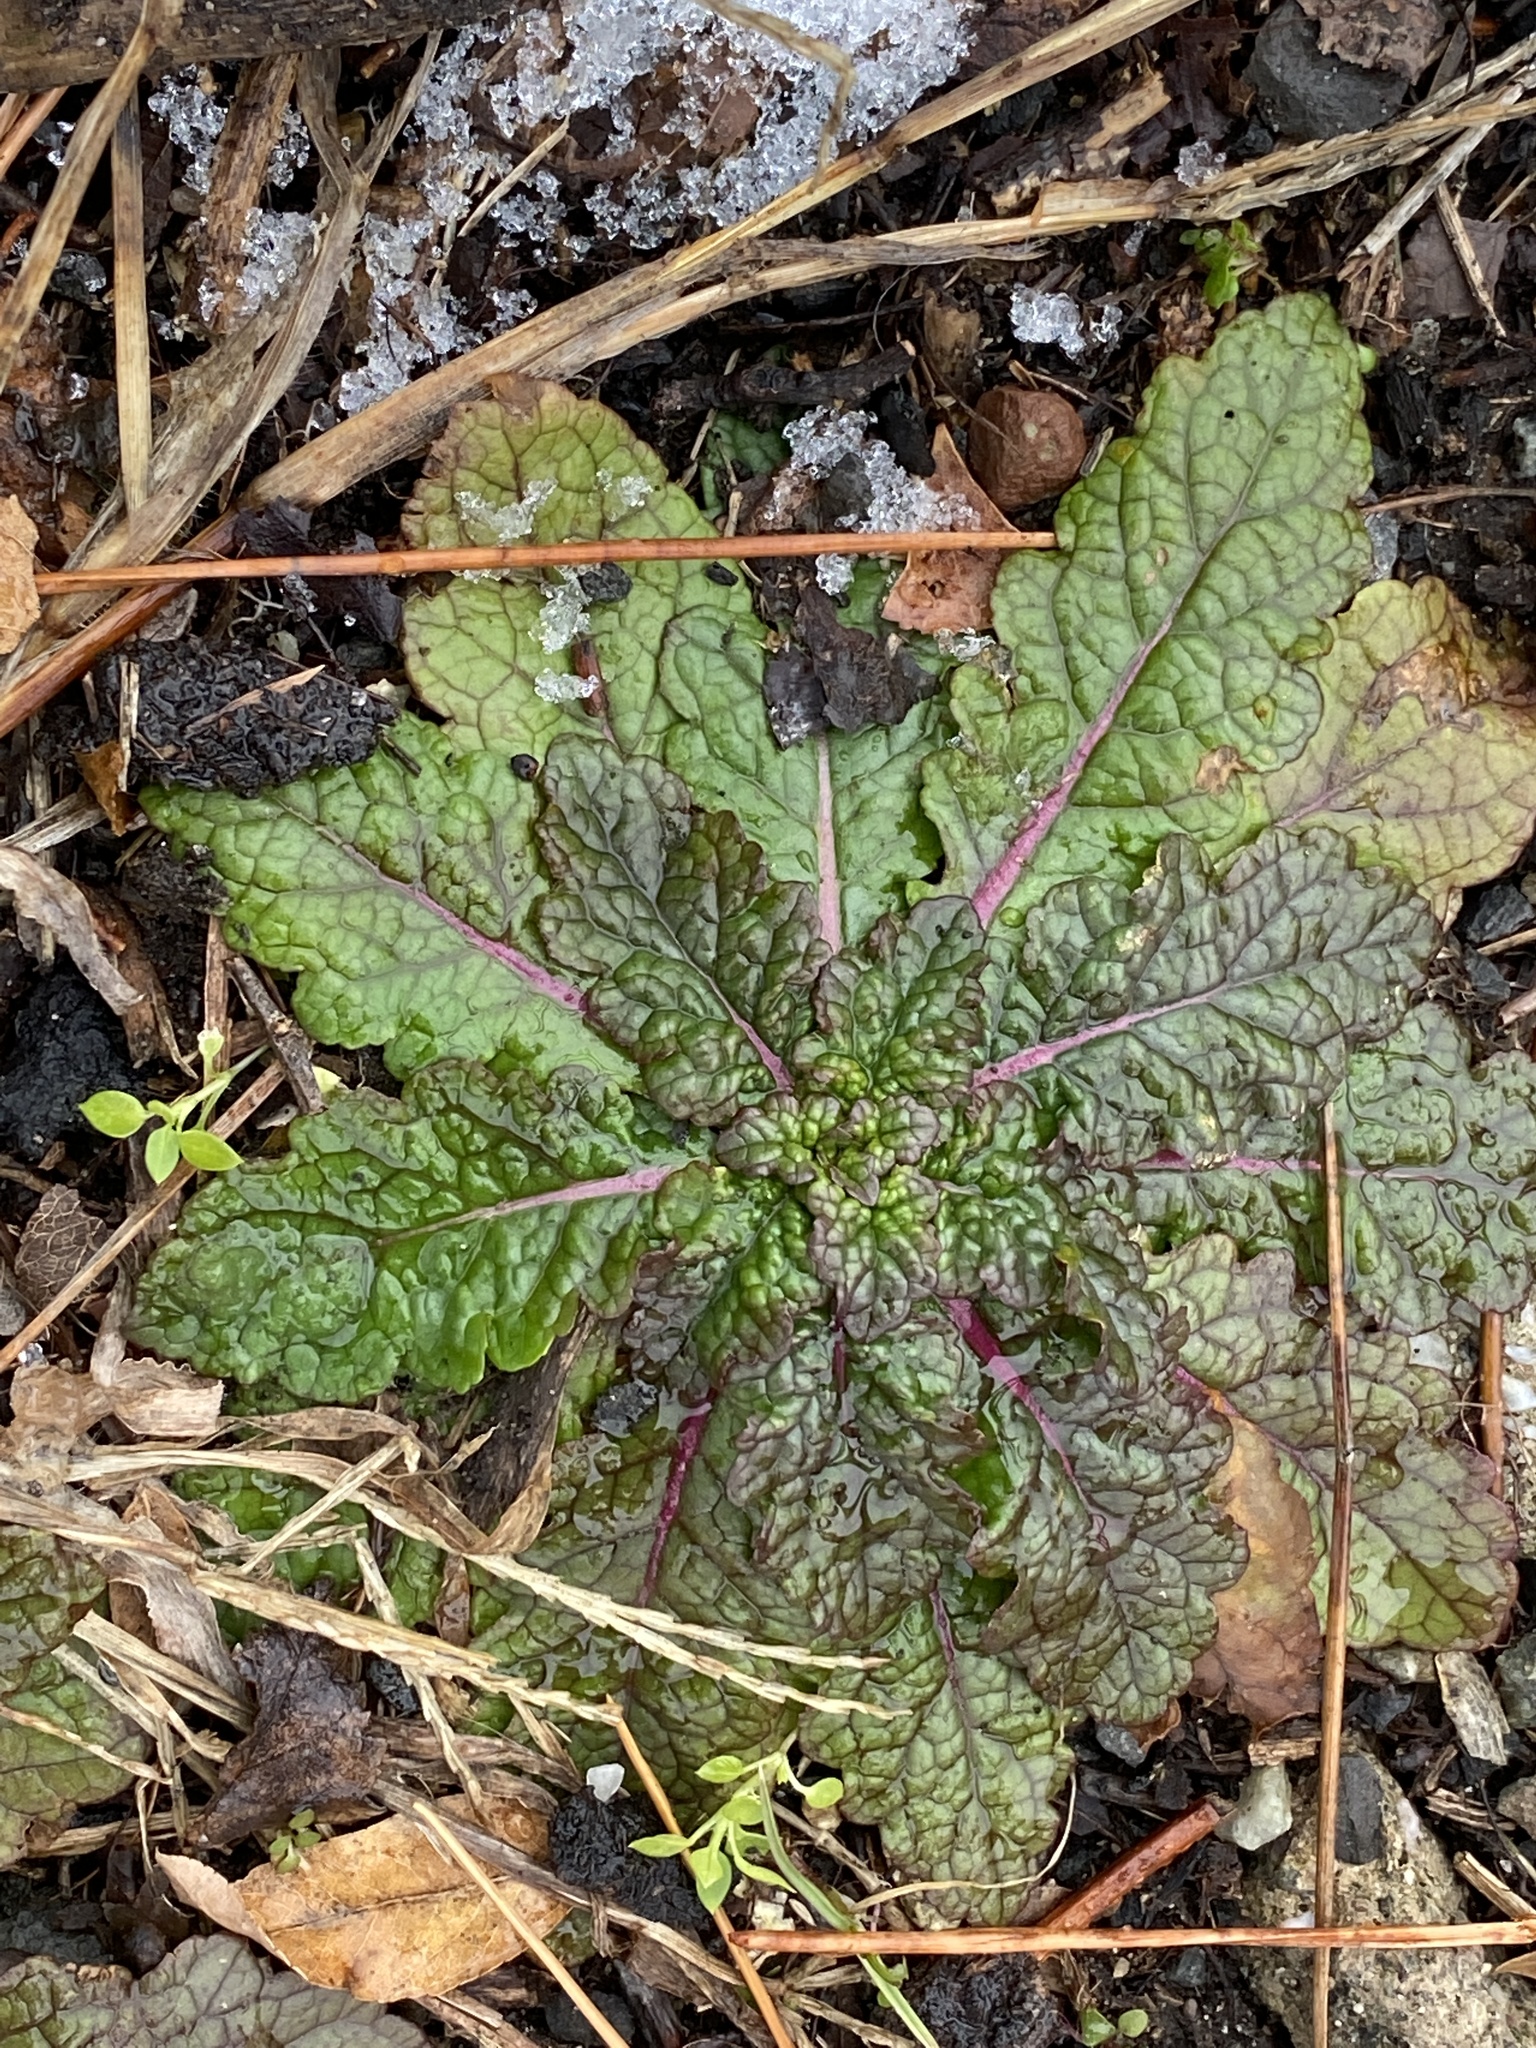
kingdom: Plantae
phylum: Tracheophyta
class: Magnoliopsida
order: Lamiales
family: Scrophulariaceae
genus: Verbascum
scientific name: Verbascum blattaria
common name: Moth mullein
